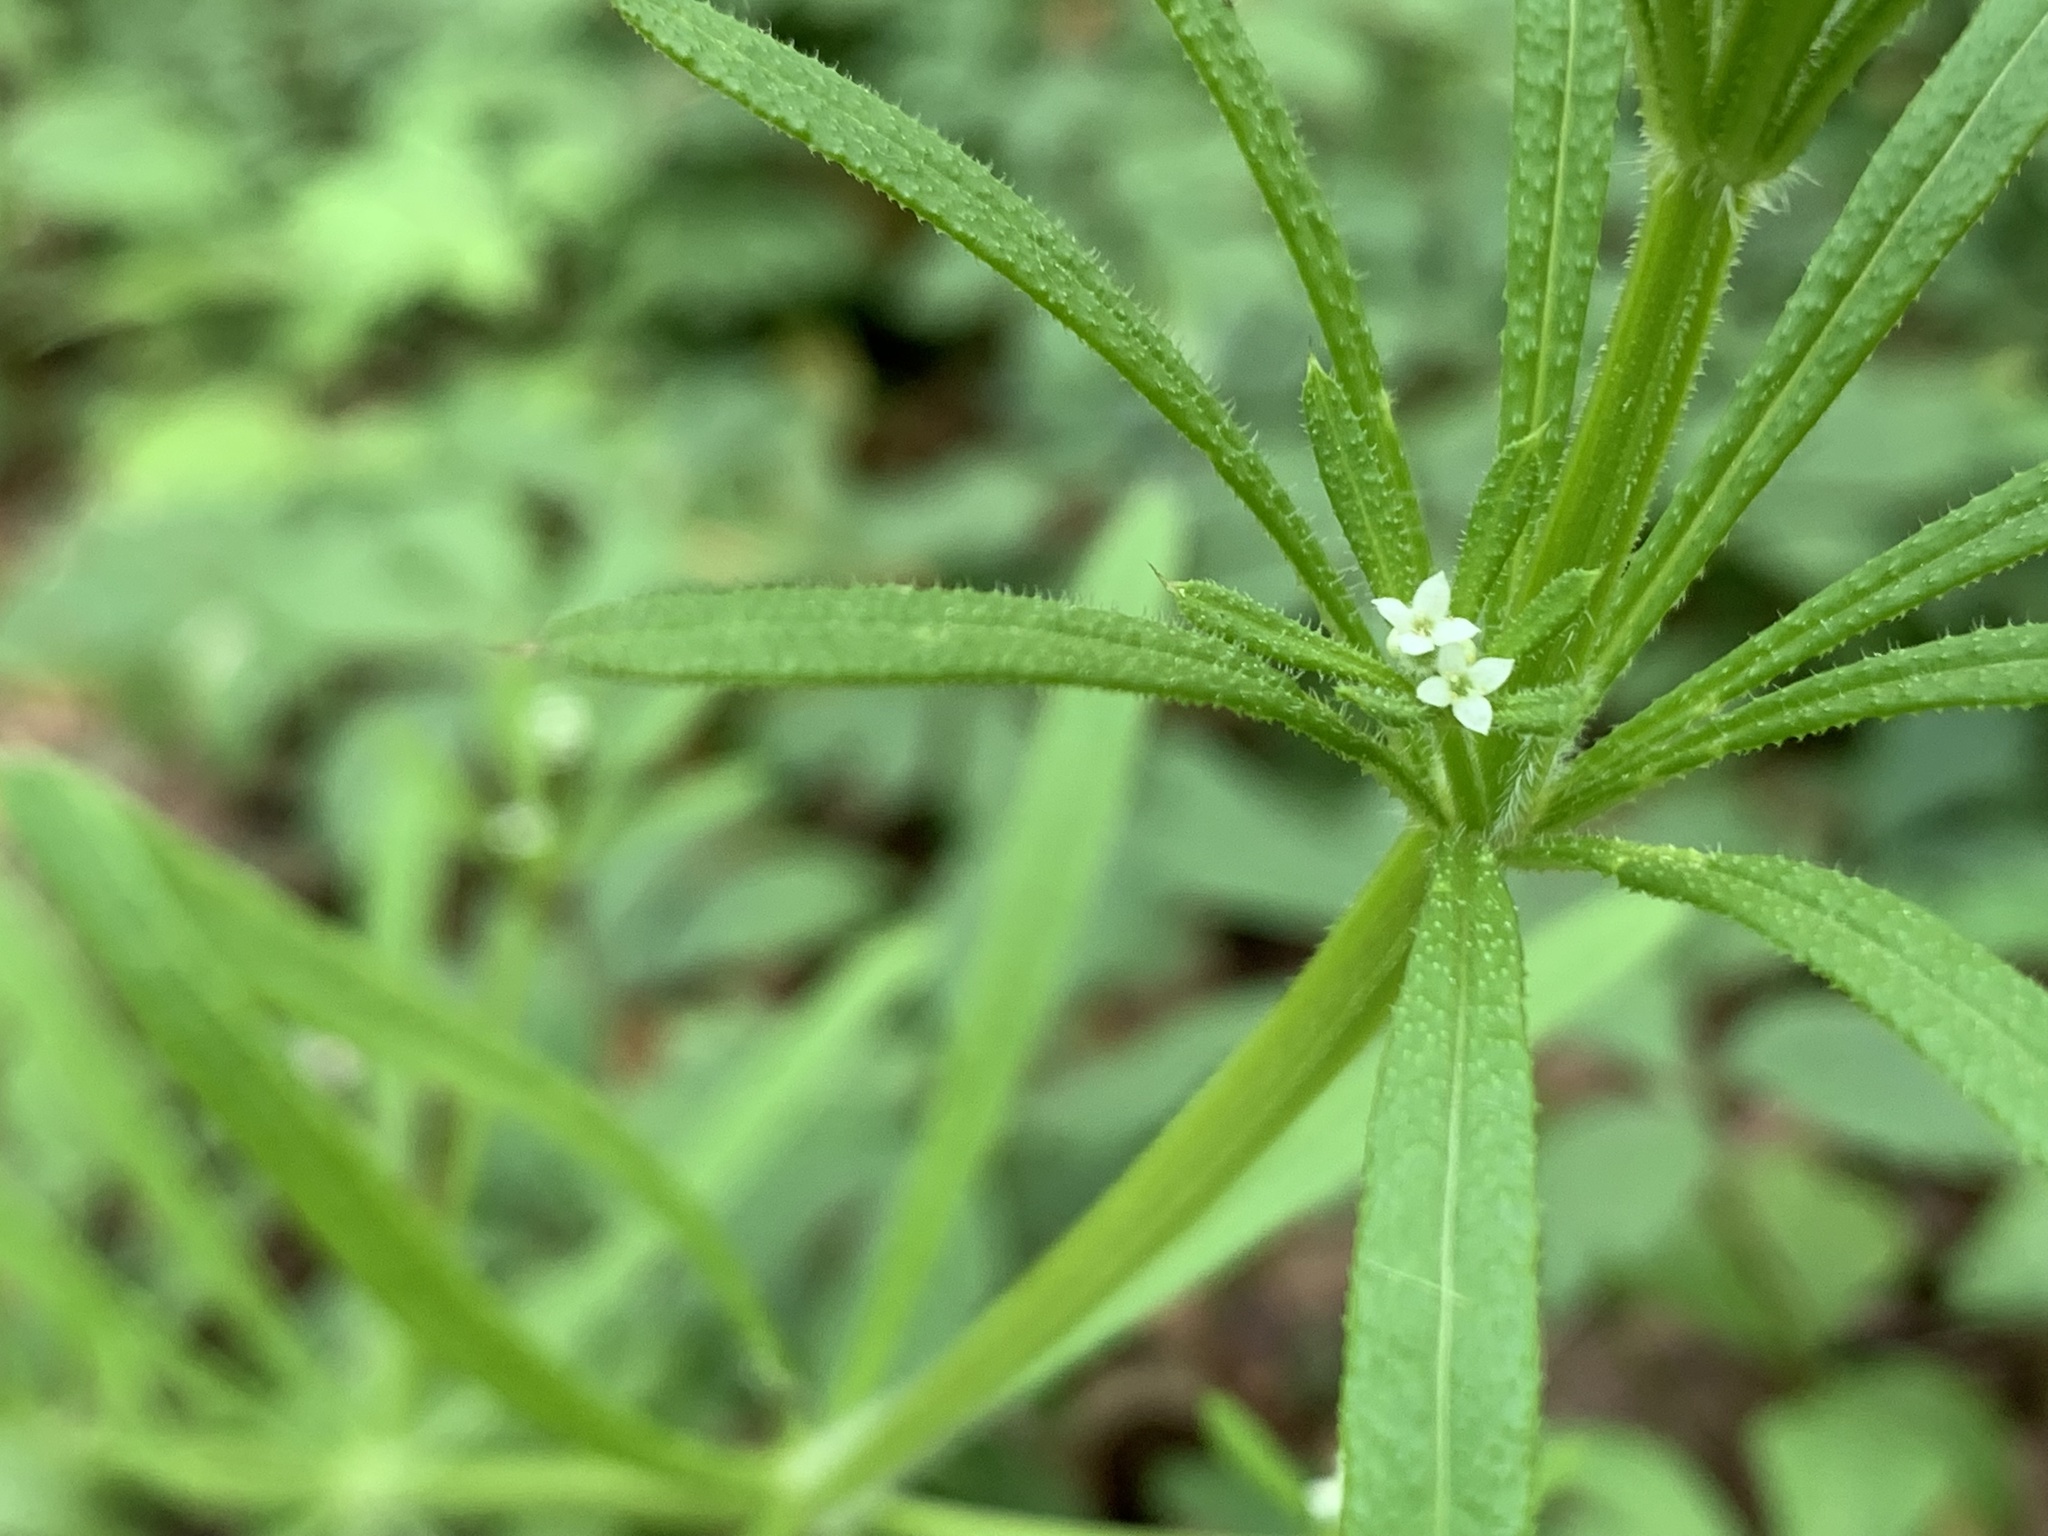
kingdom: Plantae
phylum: Tracheophyta
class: Magnoliopsida
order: Gentianales
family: Rubiaceae
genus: Galium
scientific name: Galium aparine
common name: Cleavers
